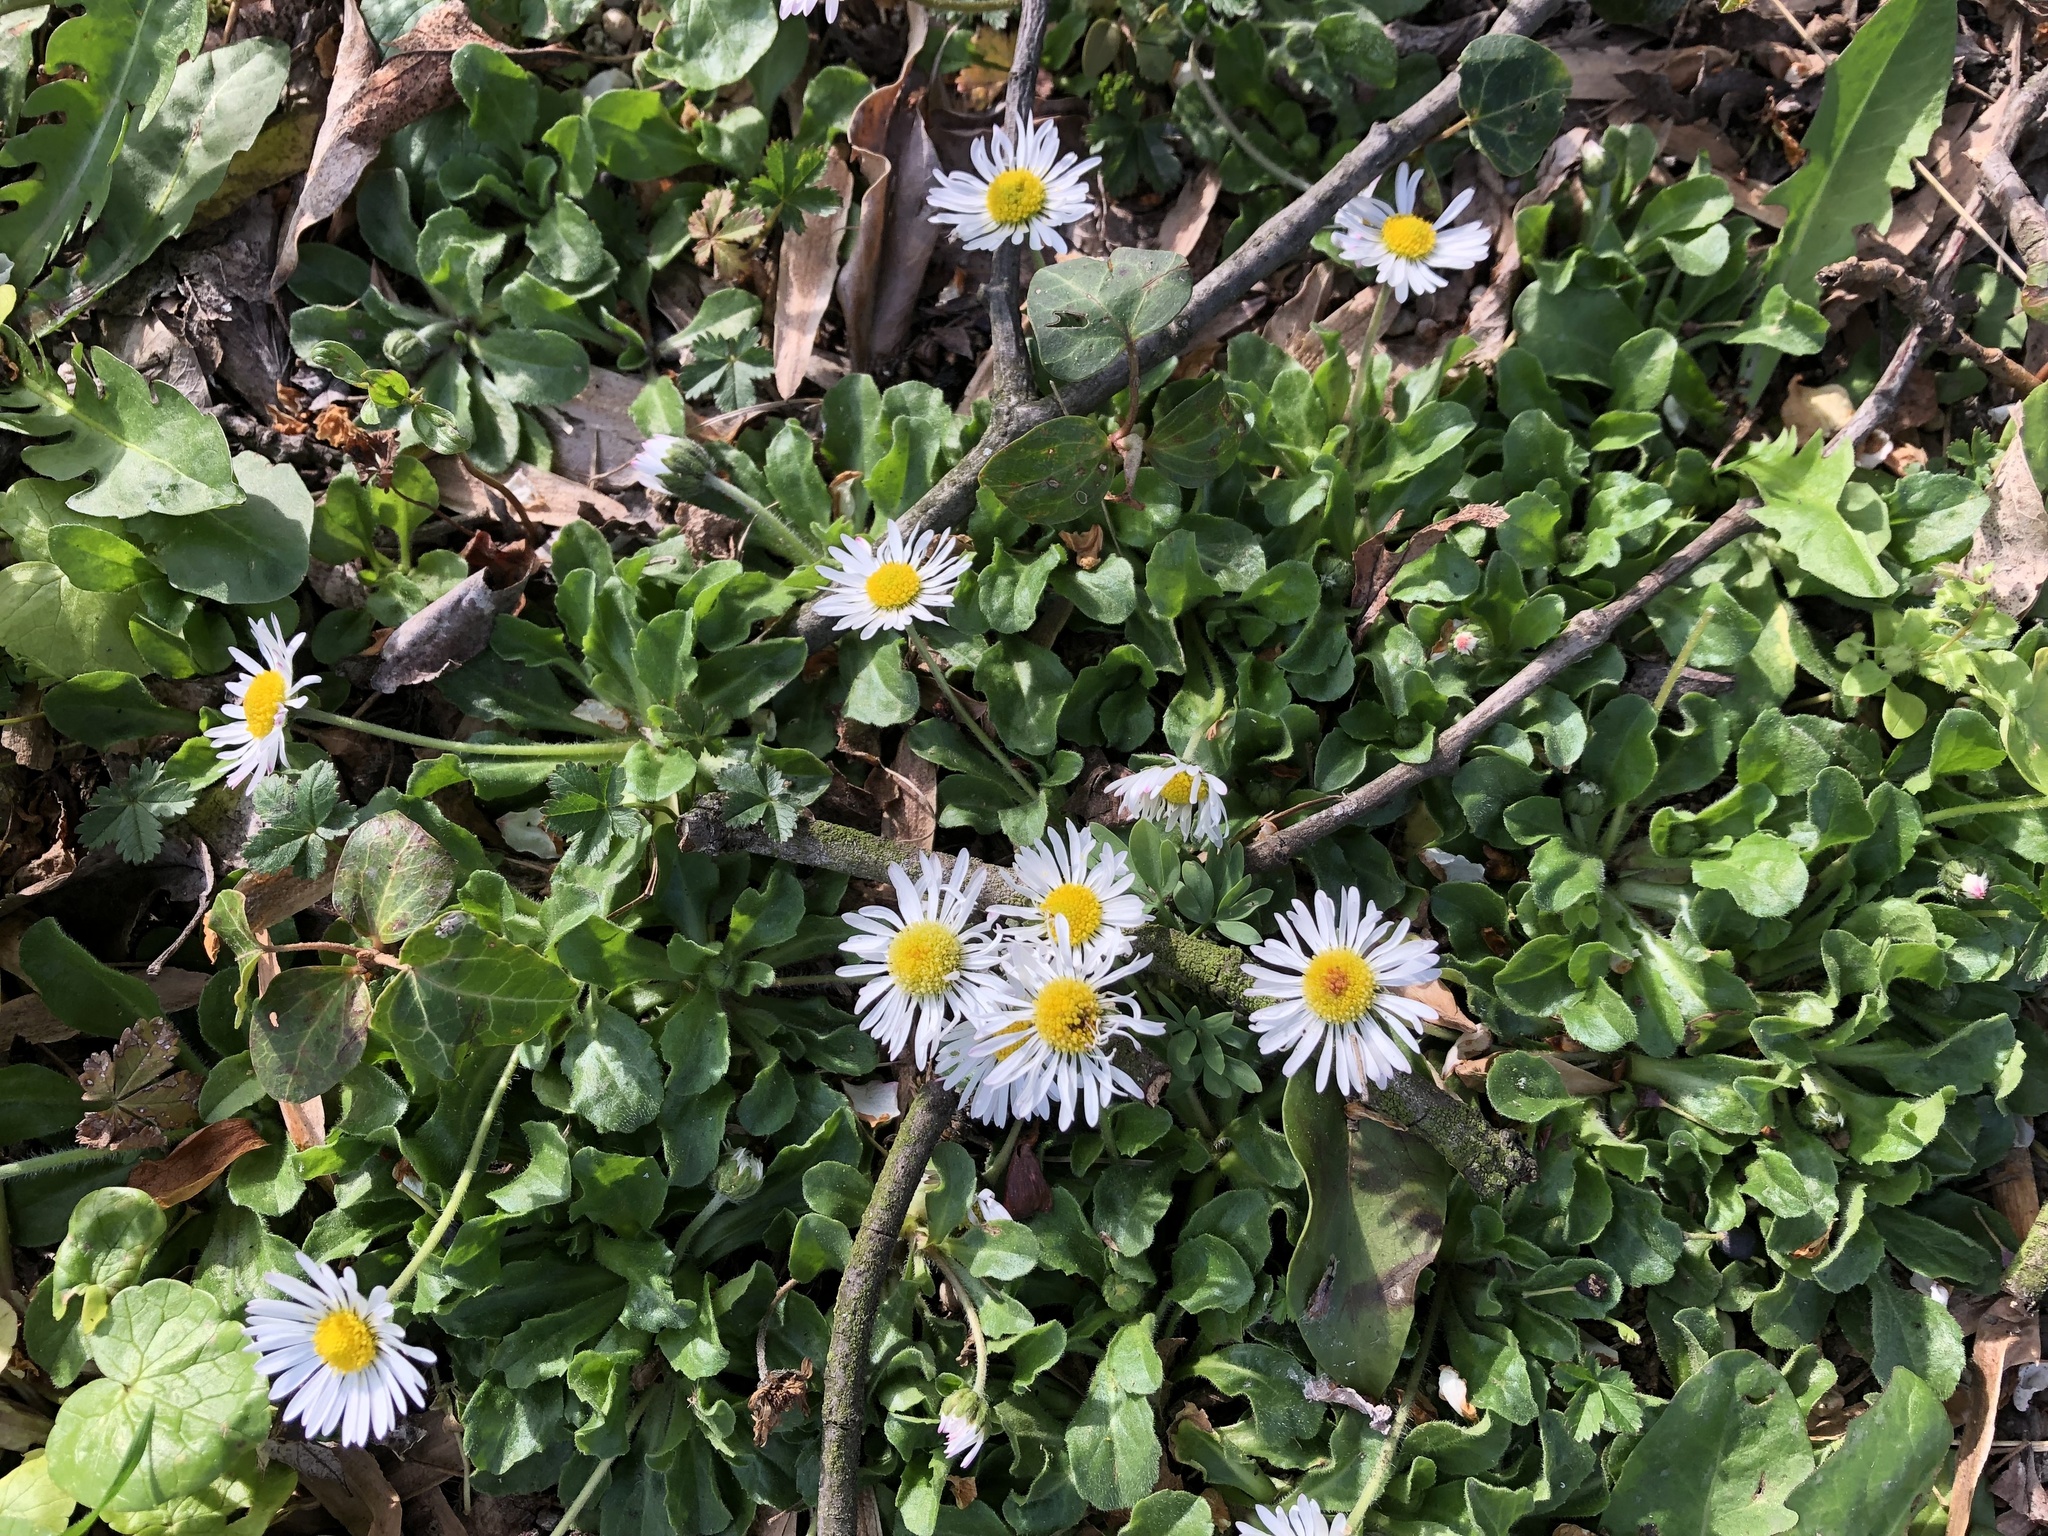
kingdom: Plantae
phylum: Tracheophyta
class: Magnoliopsida
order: Asterales
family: Asteraceae
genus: Bellis
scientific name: Bellis perennis
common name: Lawndaisy
